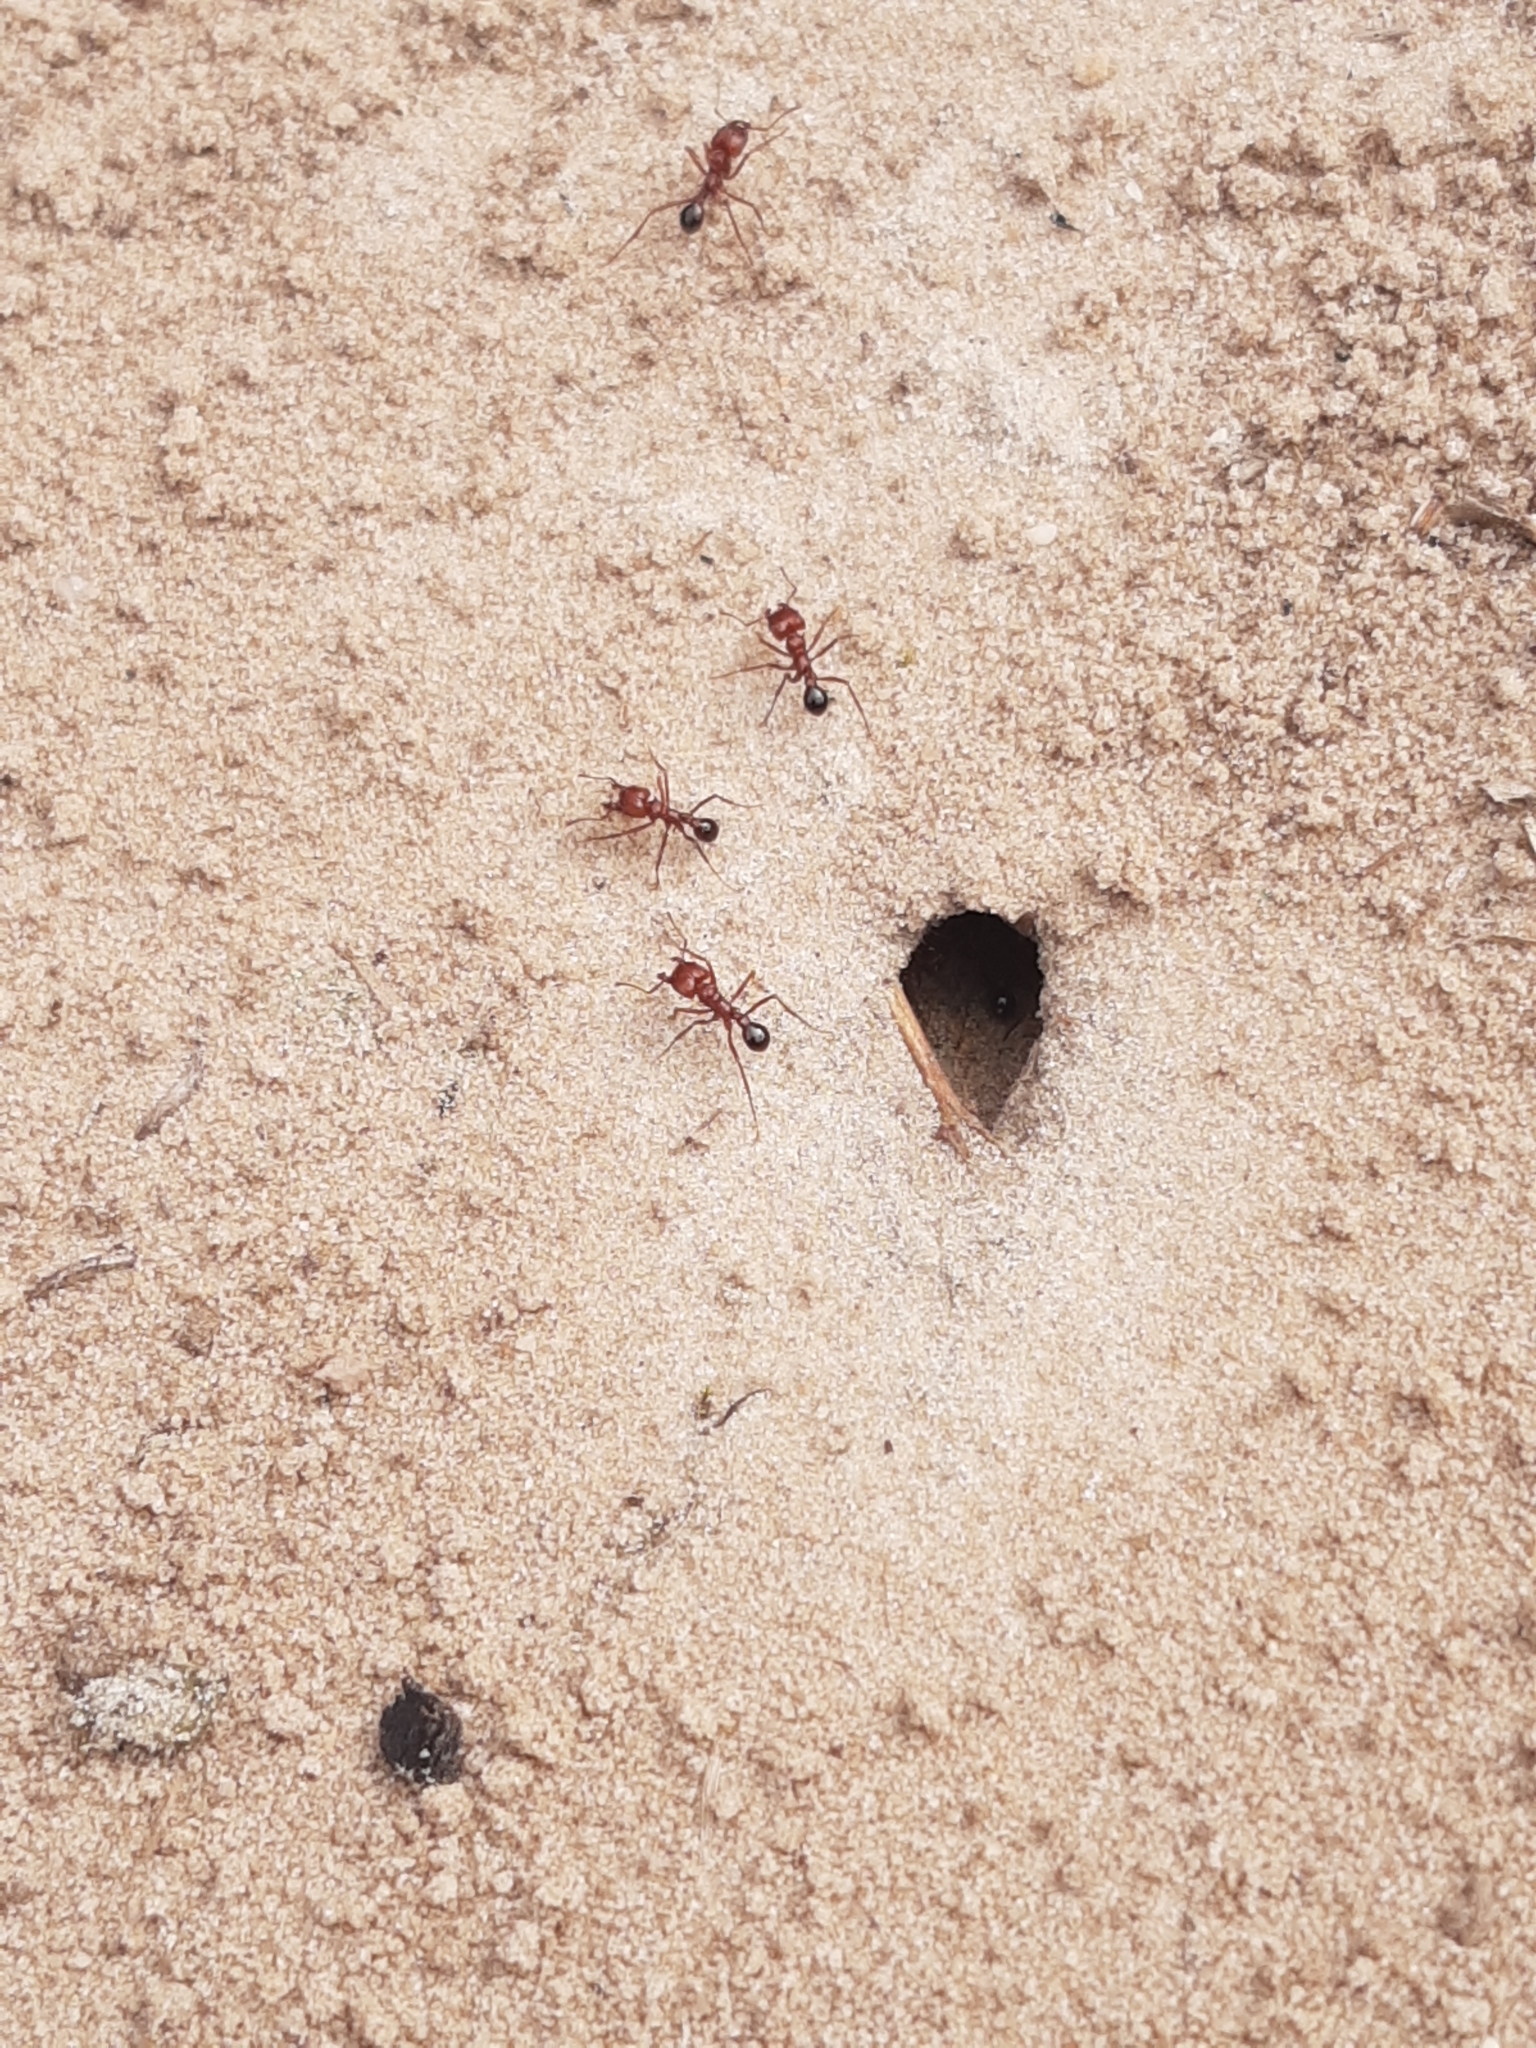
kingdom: Animalia
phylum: Arthropoda
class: Insecta
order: Hymenoptera
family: Formicidae
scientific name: Formicidae
